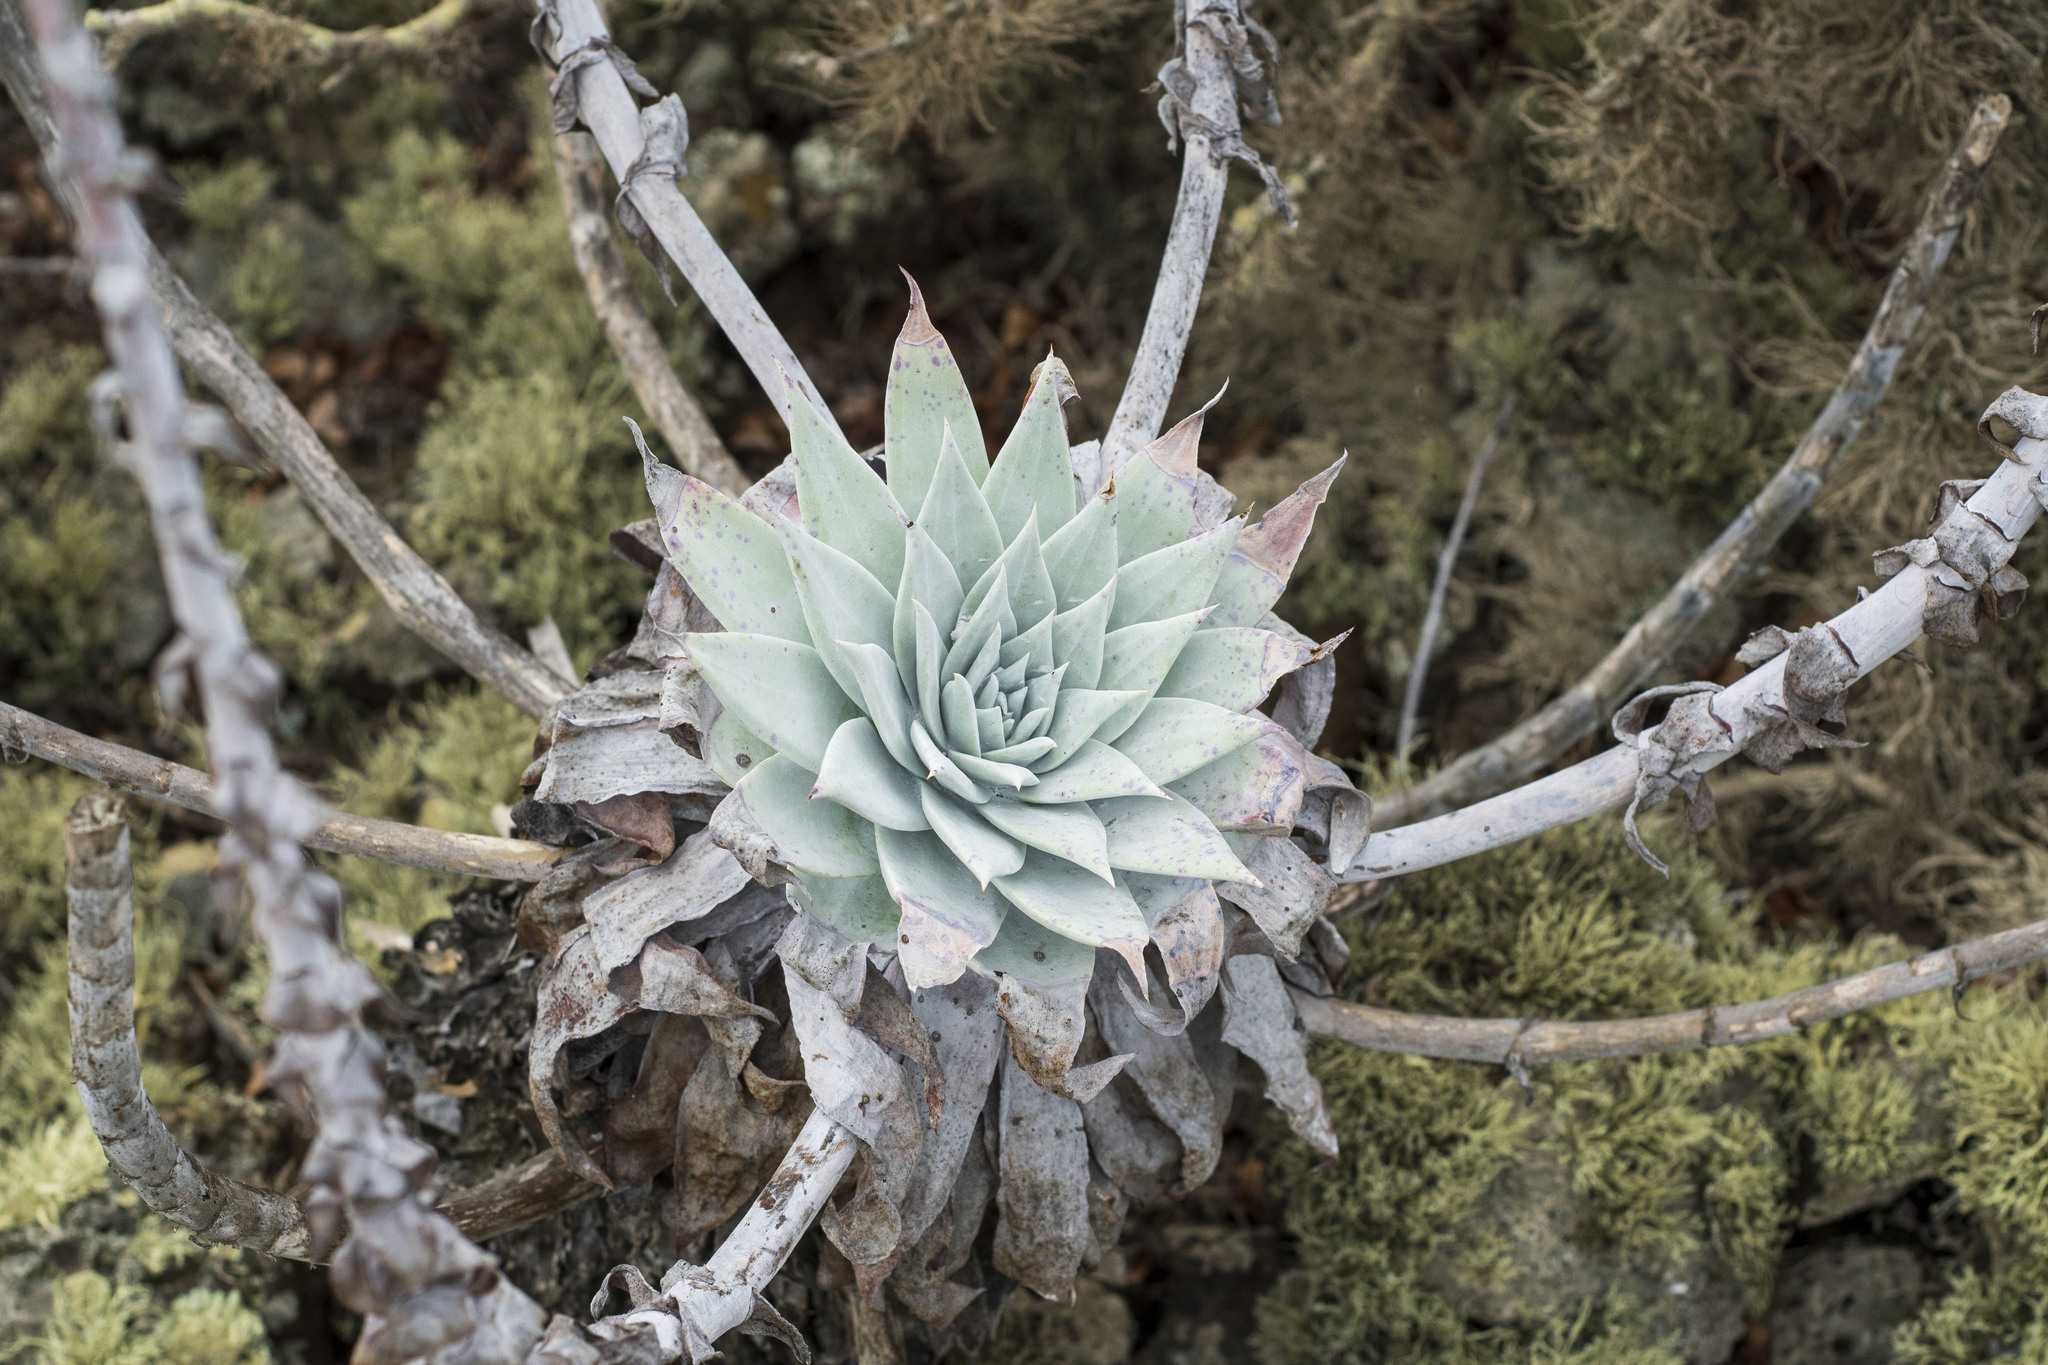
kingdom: Plantae
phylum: Tracheophyta
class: Magnoliopsida
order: Saxifragales
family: Crassulaceae
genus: Dudleya
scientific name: Dudleya anthonyi
